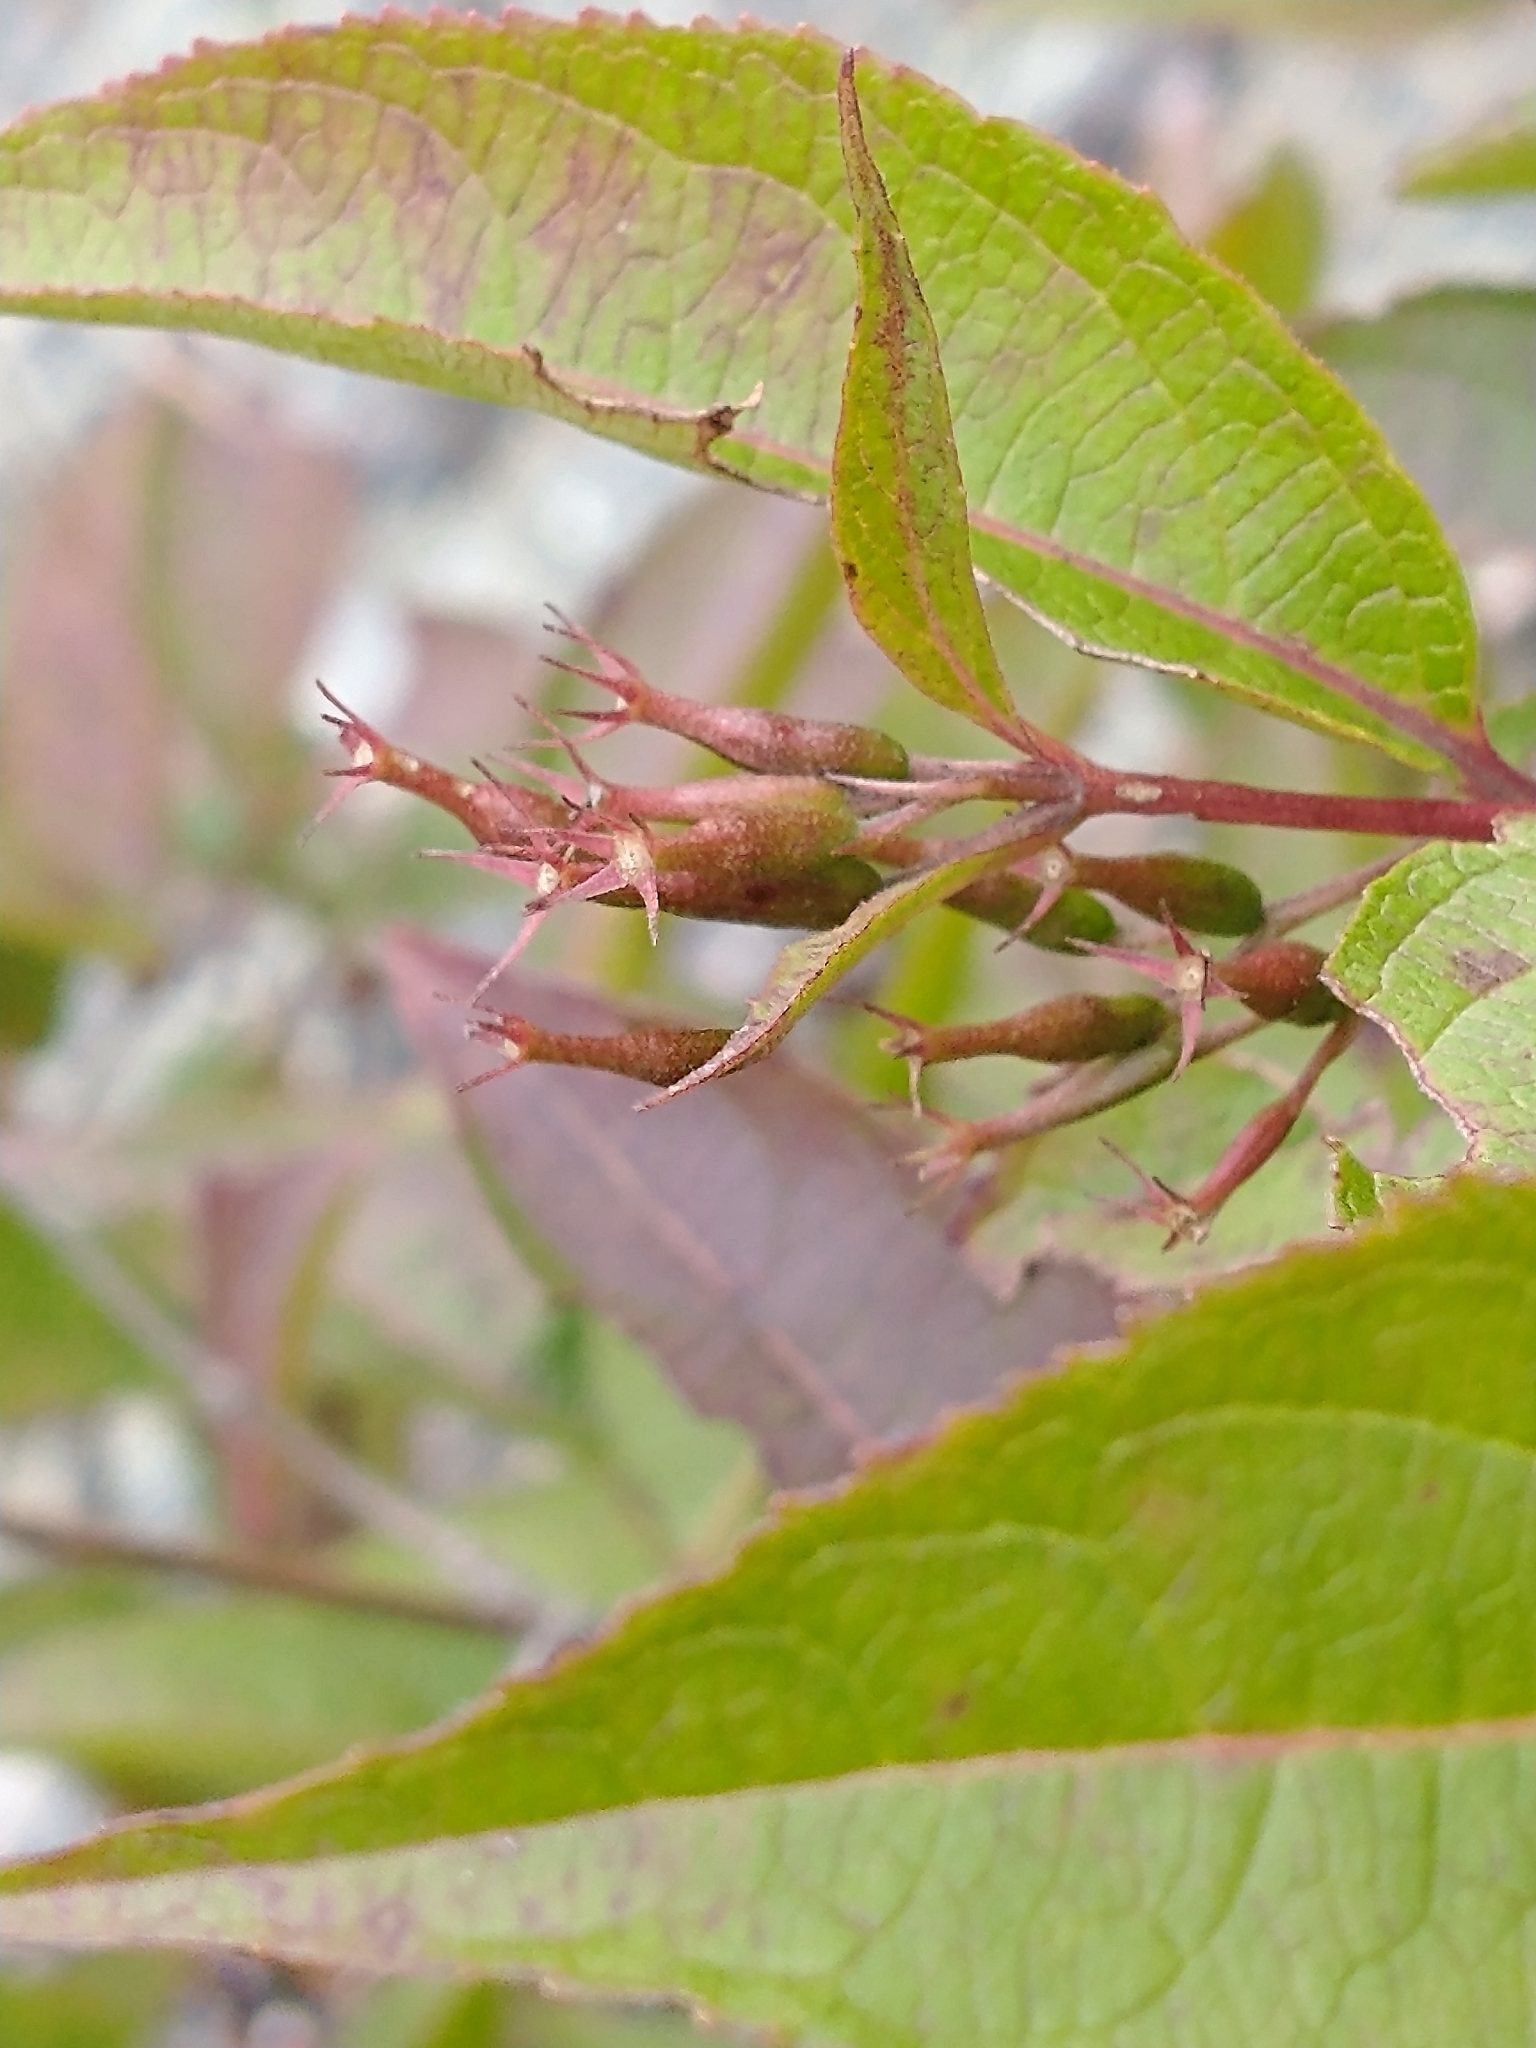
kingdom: Plantae
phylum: Tracheophyta
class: Magnoliopsida
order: Dipsacales
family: Caprifoliaceae
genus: Diervilla
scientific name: Diervilla lonicera
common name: Bush-honeysuckle
